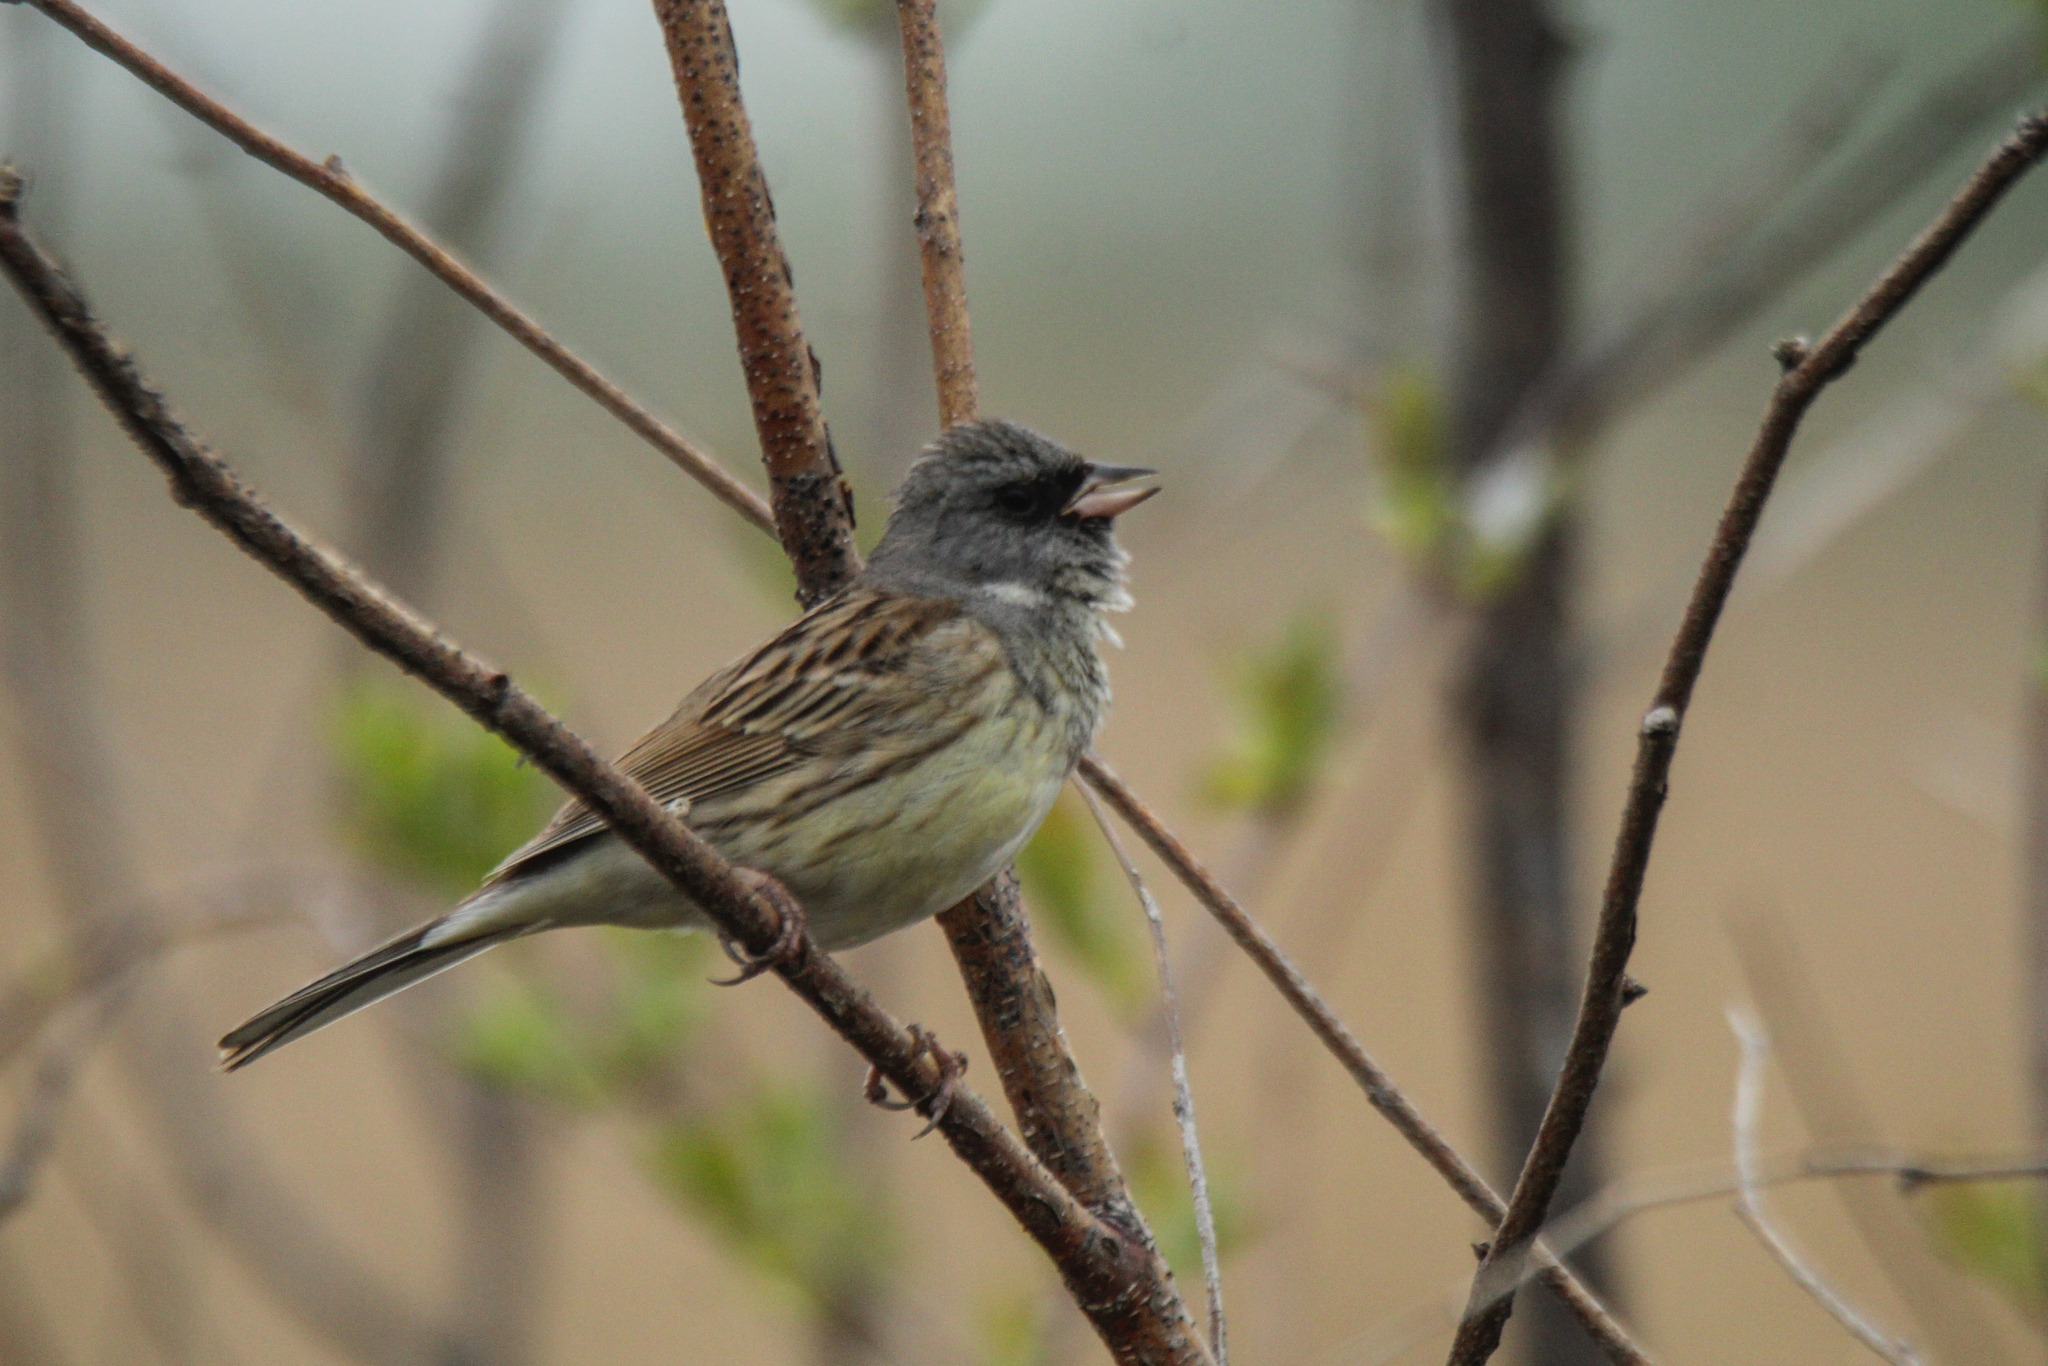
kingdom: Animalia
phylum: Chordata
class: Aves
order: Passeriformes
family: Emberizidae
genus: Emberiza
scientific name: Emberiza spodocephala
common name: Black-faced bunting
